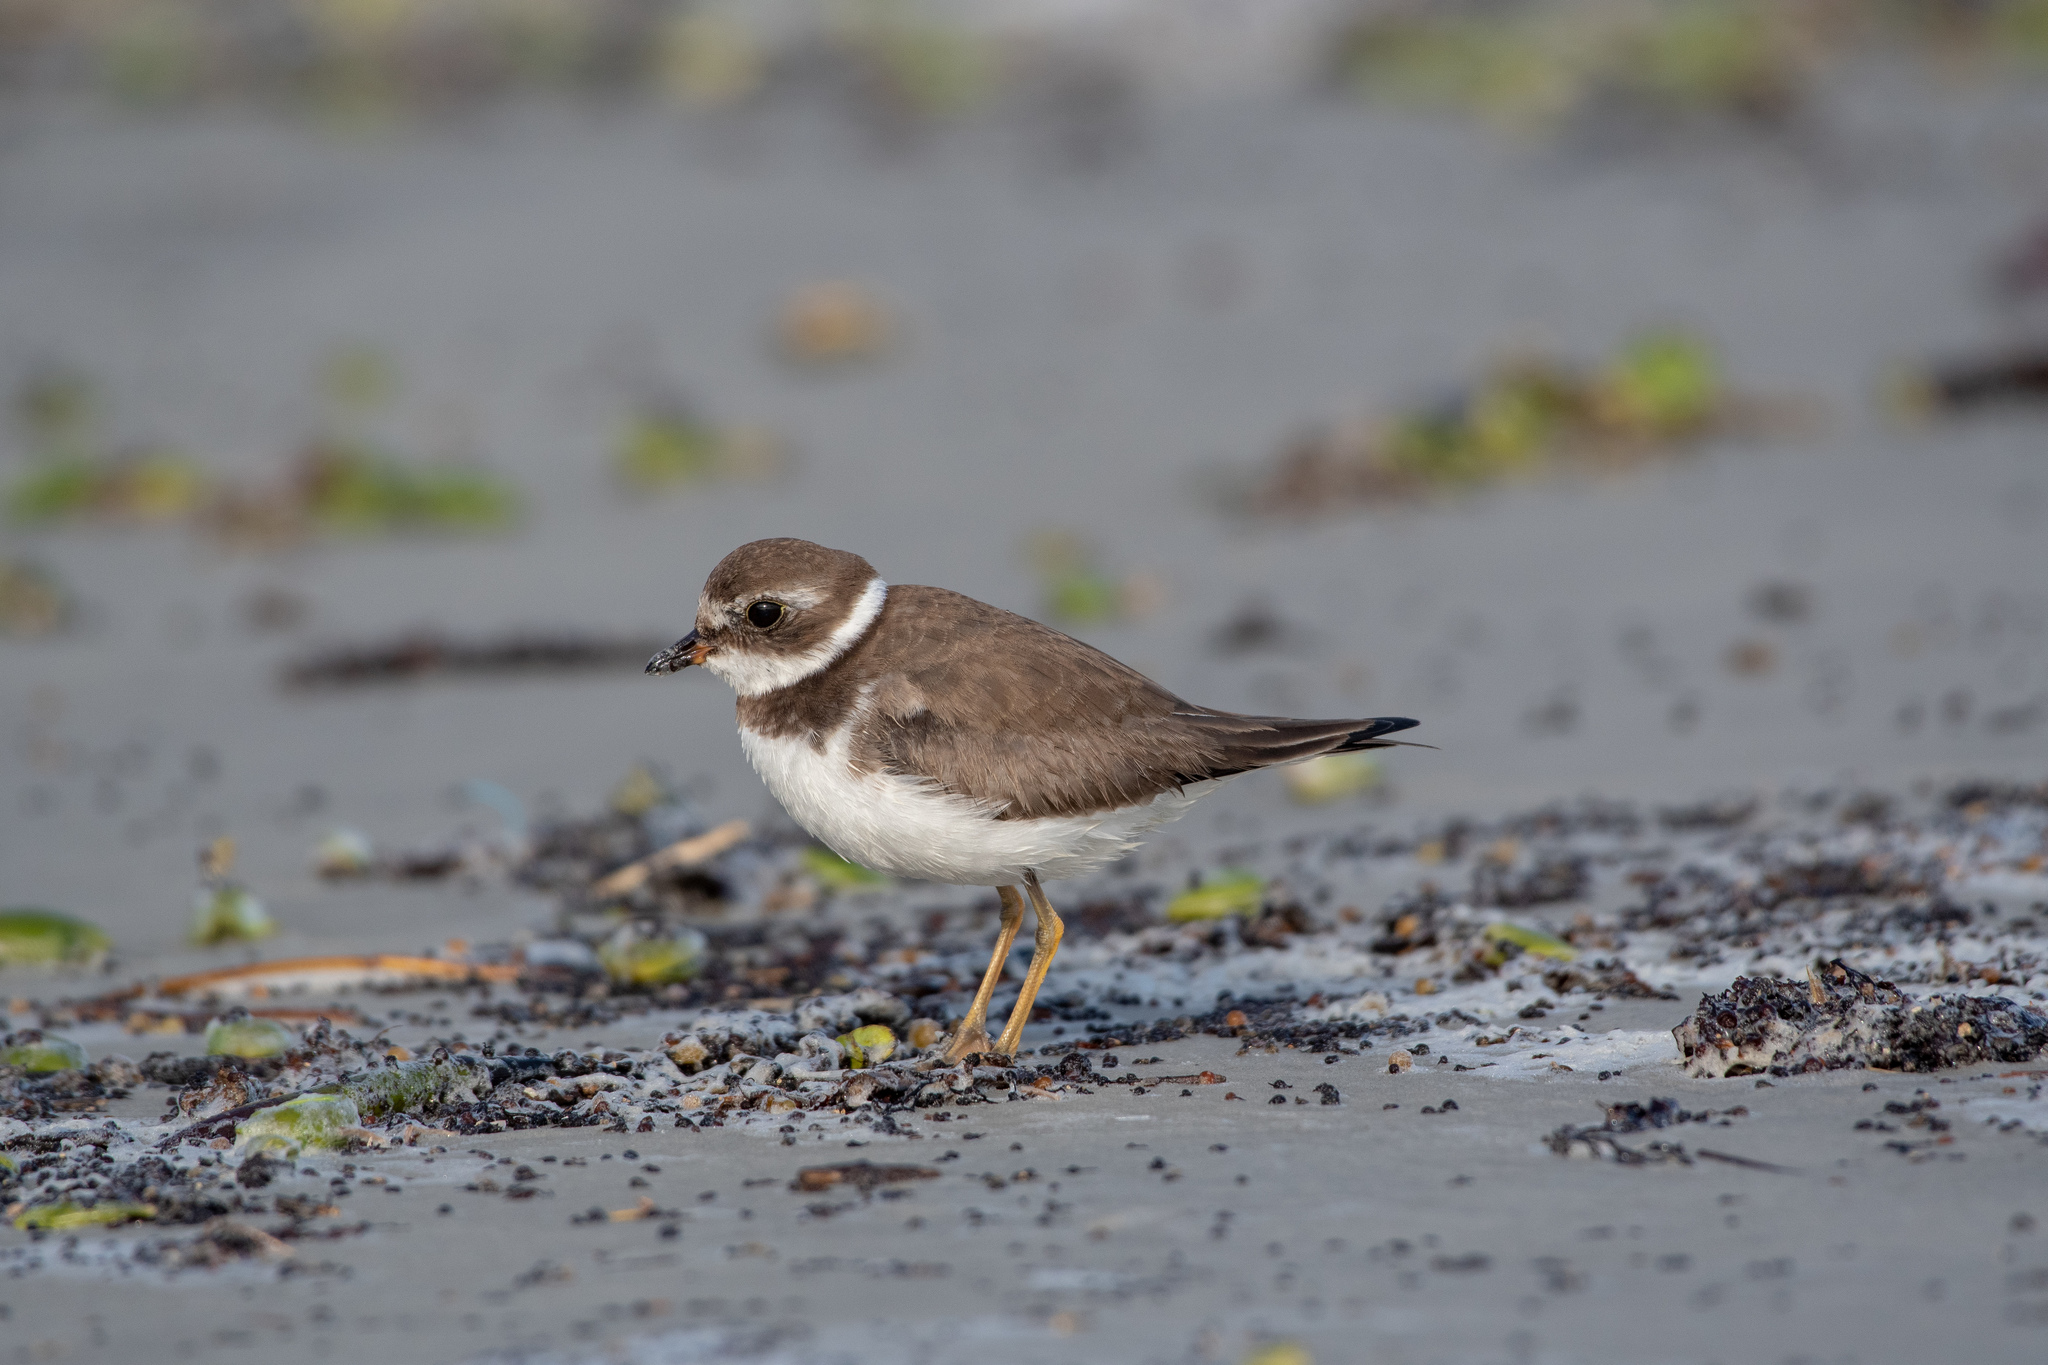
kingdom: Animalia
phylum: Chordata
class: Aves
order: Charadriiformes
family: Charadriidae
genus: Charadrius
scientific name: Charadrius semipalmatus
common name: Semipalmated plover
